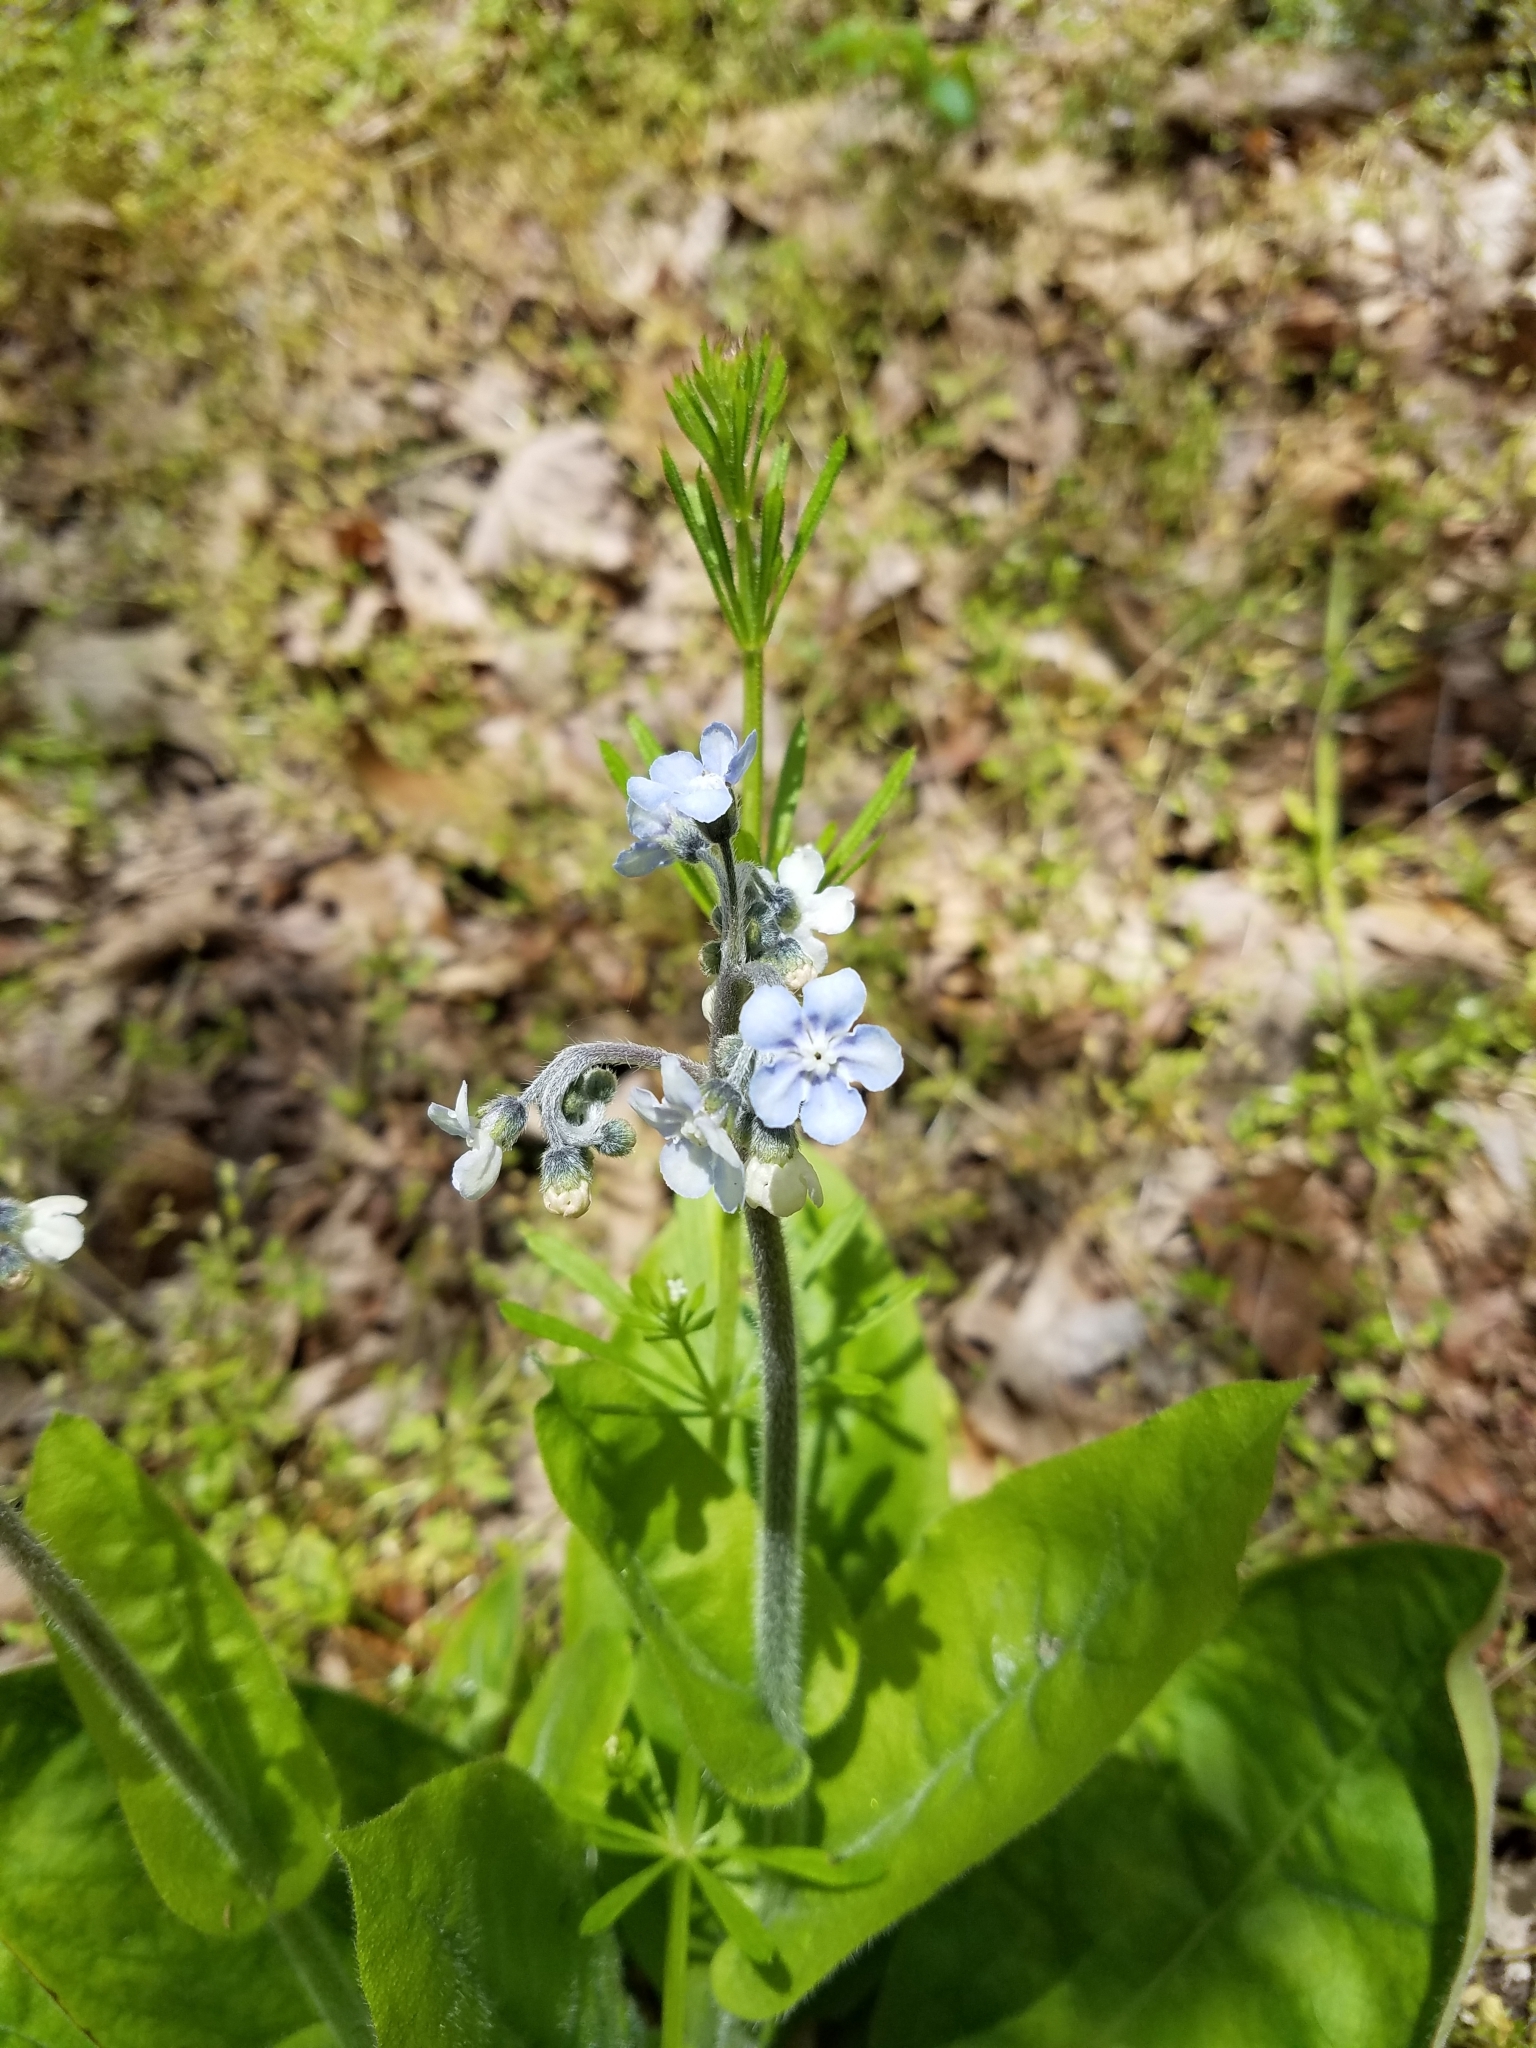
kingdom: Plantae
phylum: Tracheophyta
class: Magnoliopsida
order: Boraginales
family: Boraginaceae
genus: Andersonglossum
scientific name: Andersonglossum virginianum
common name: Wild comfrey
